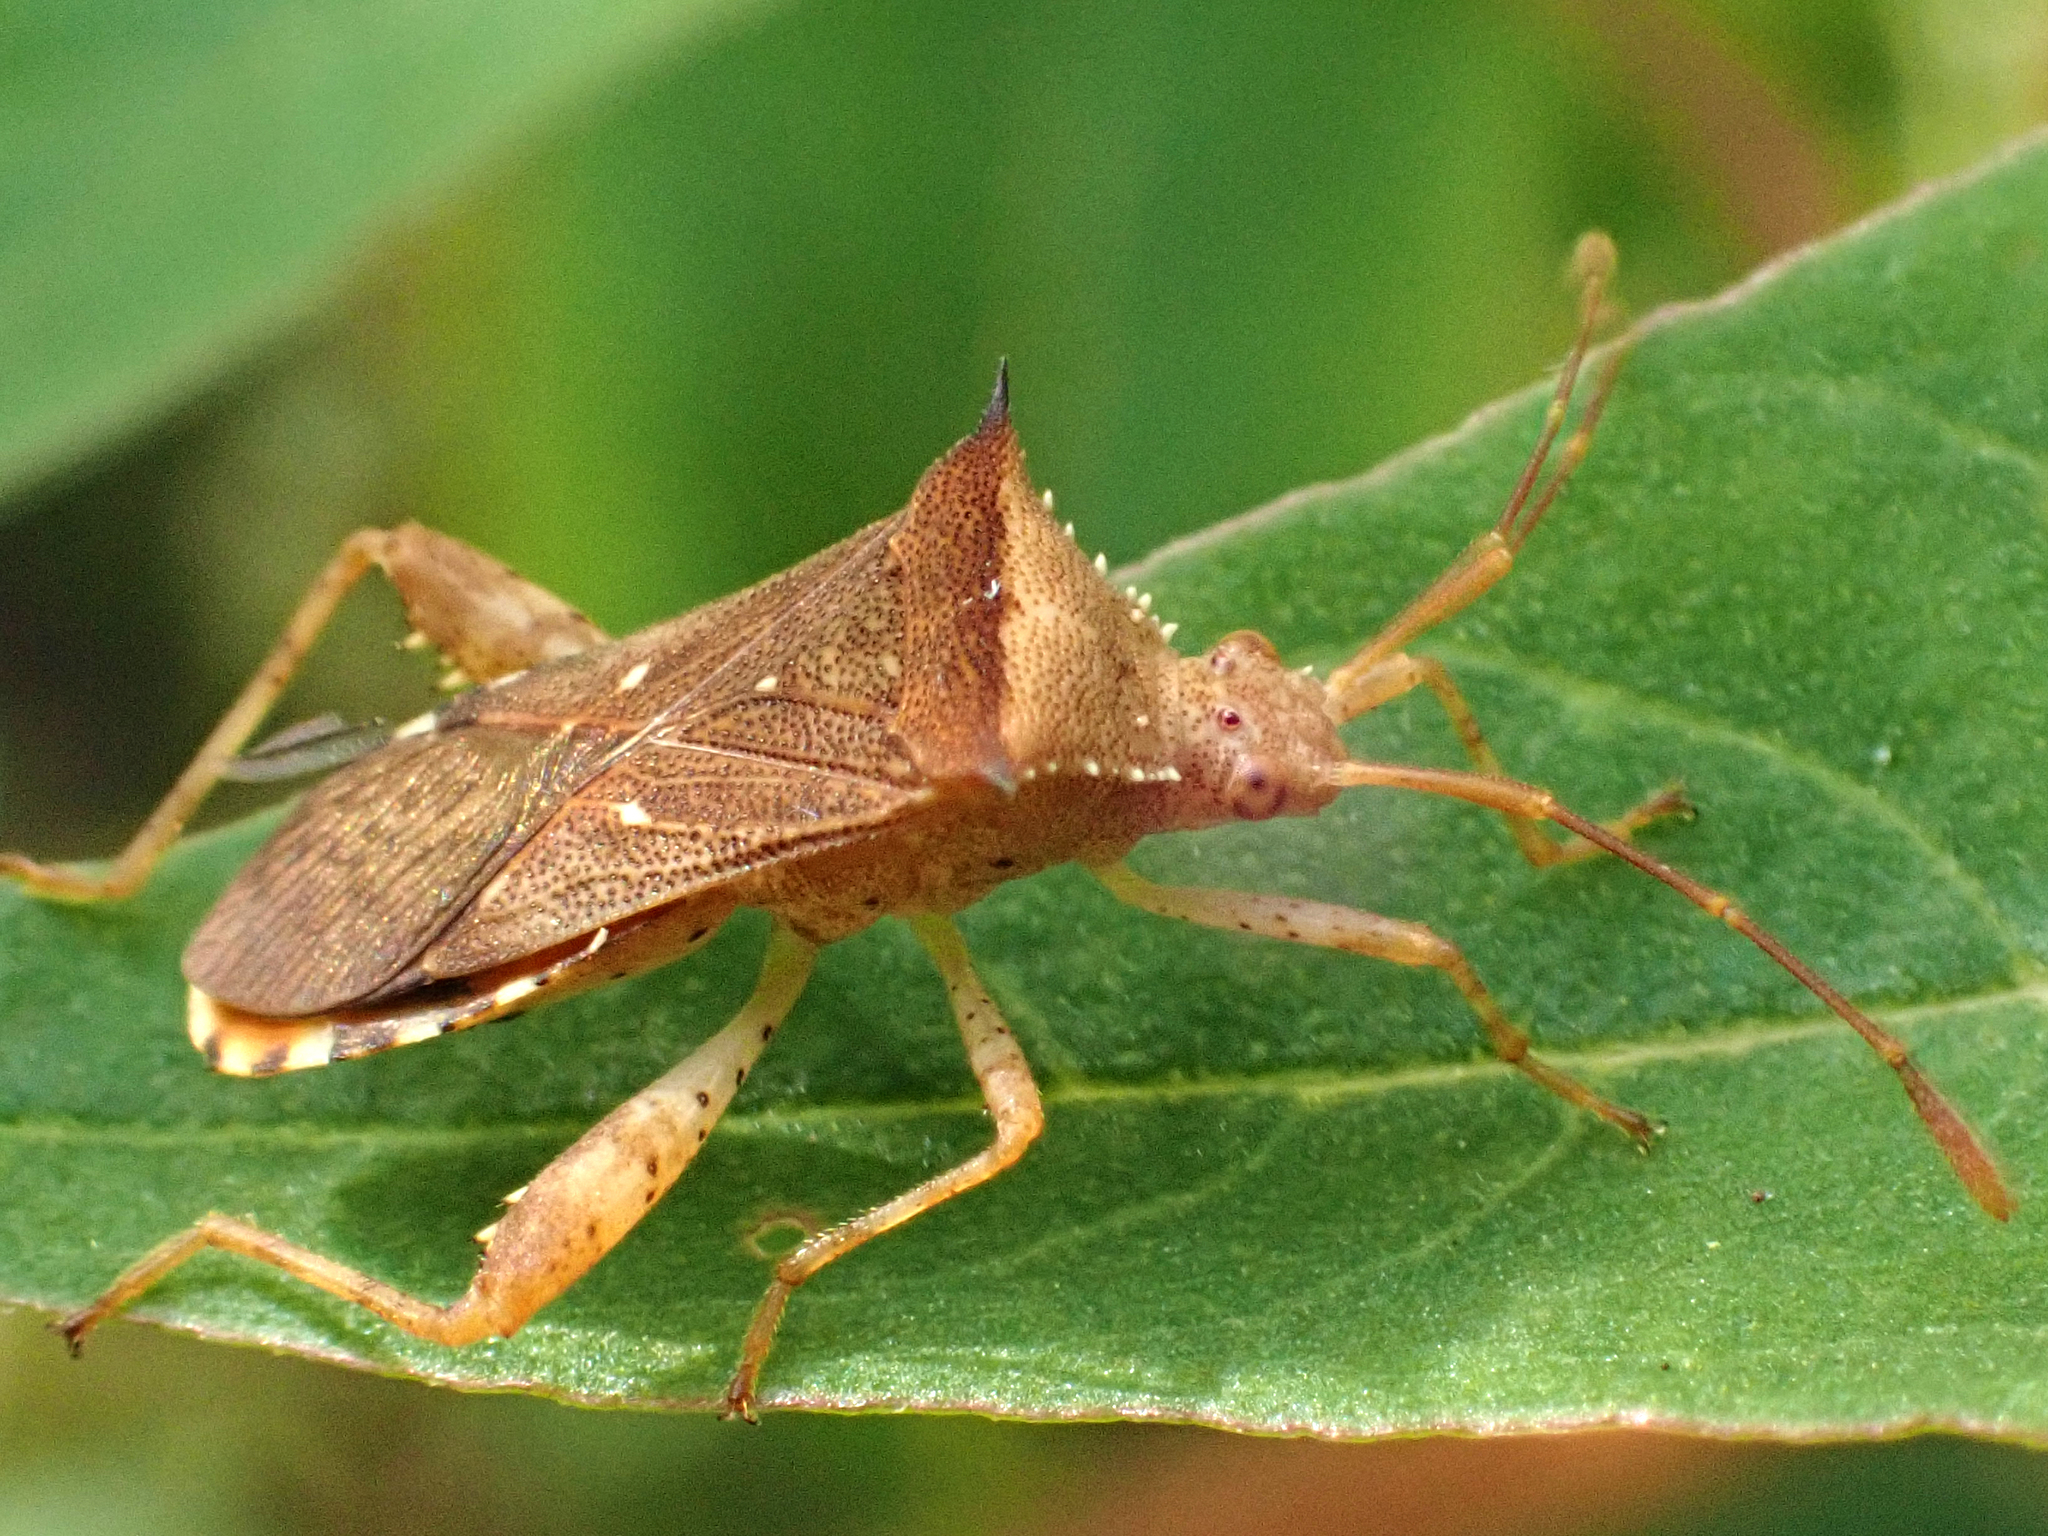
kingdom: Animalia
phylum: Arthropoda
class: Insecta
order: Hemiptera
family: Coreidae
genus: Zicca
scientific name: Zicca taeniola
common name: Leaf-footed bug
